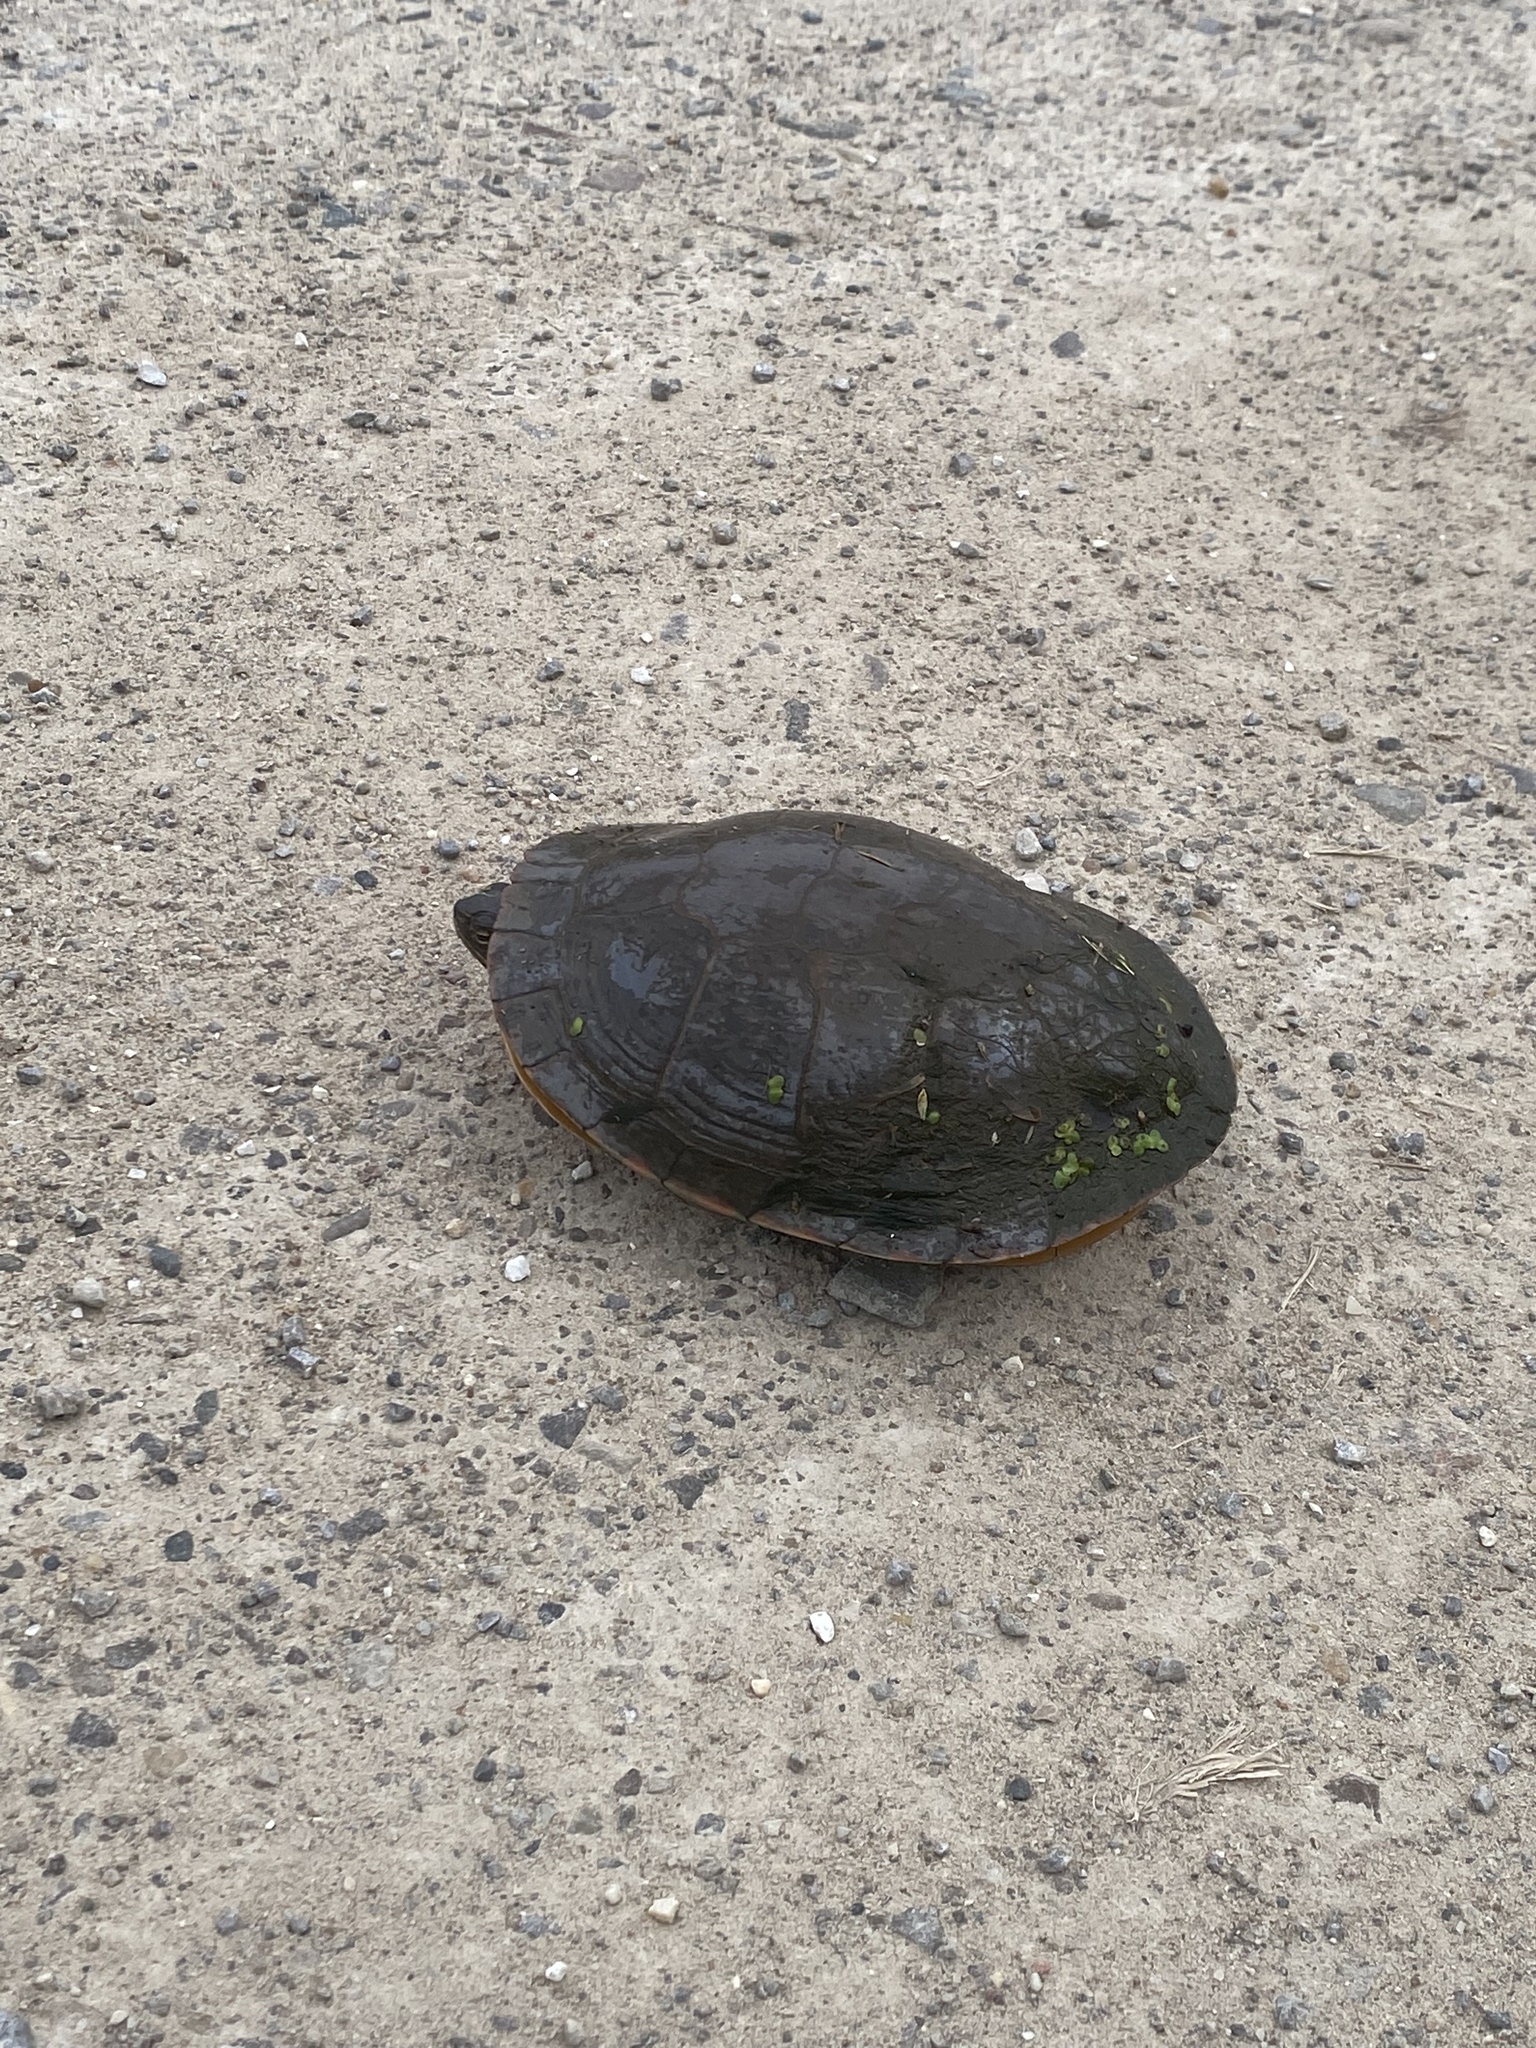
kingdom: Animalia
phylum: Chordata
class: Testudines
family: Emydidae
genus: Chrysemys
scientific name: Chrysemys picta
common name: Painted turtle
